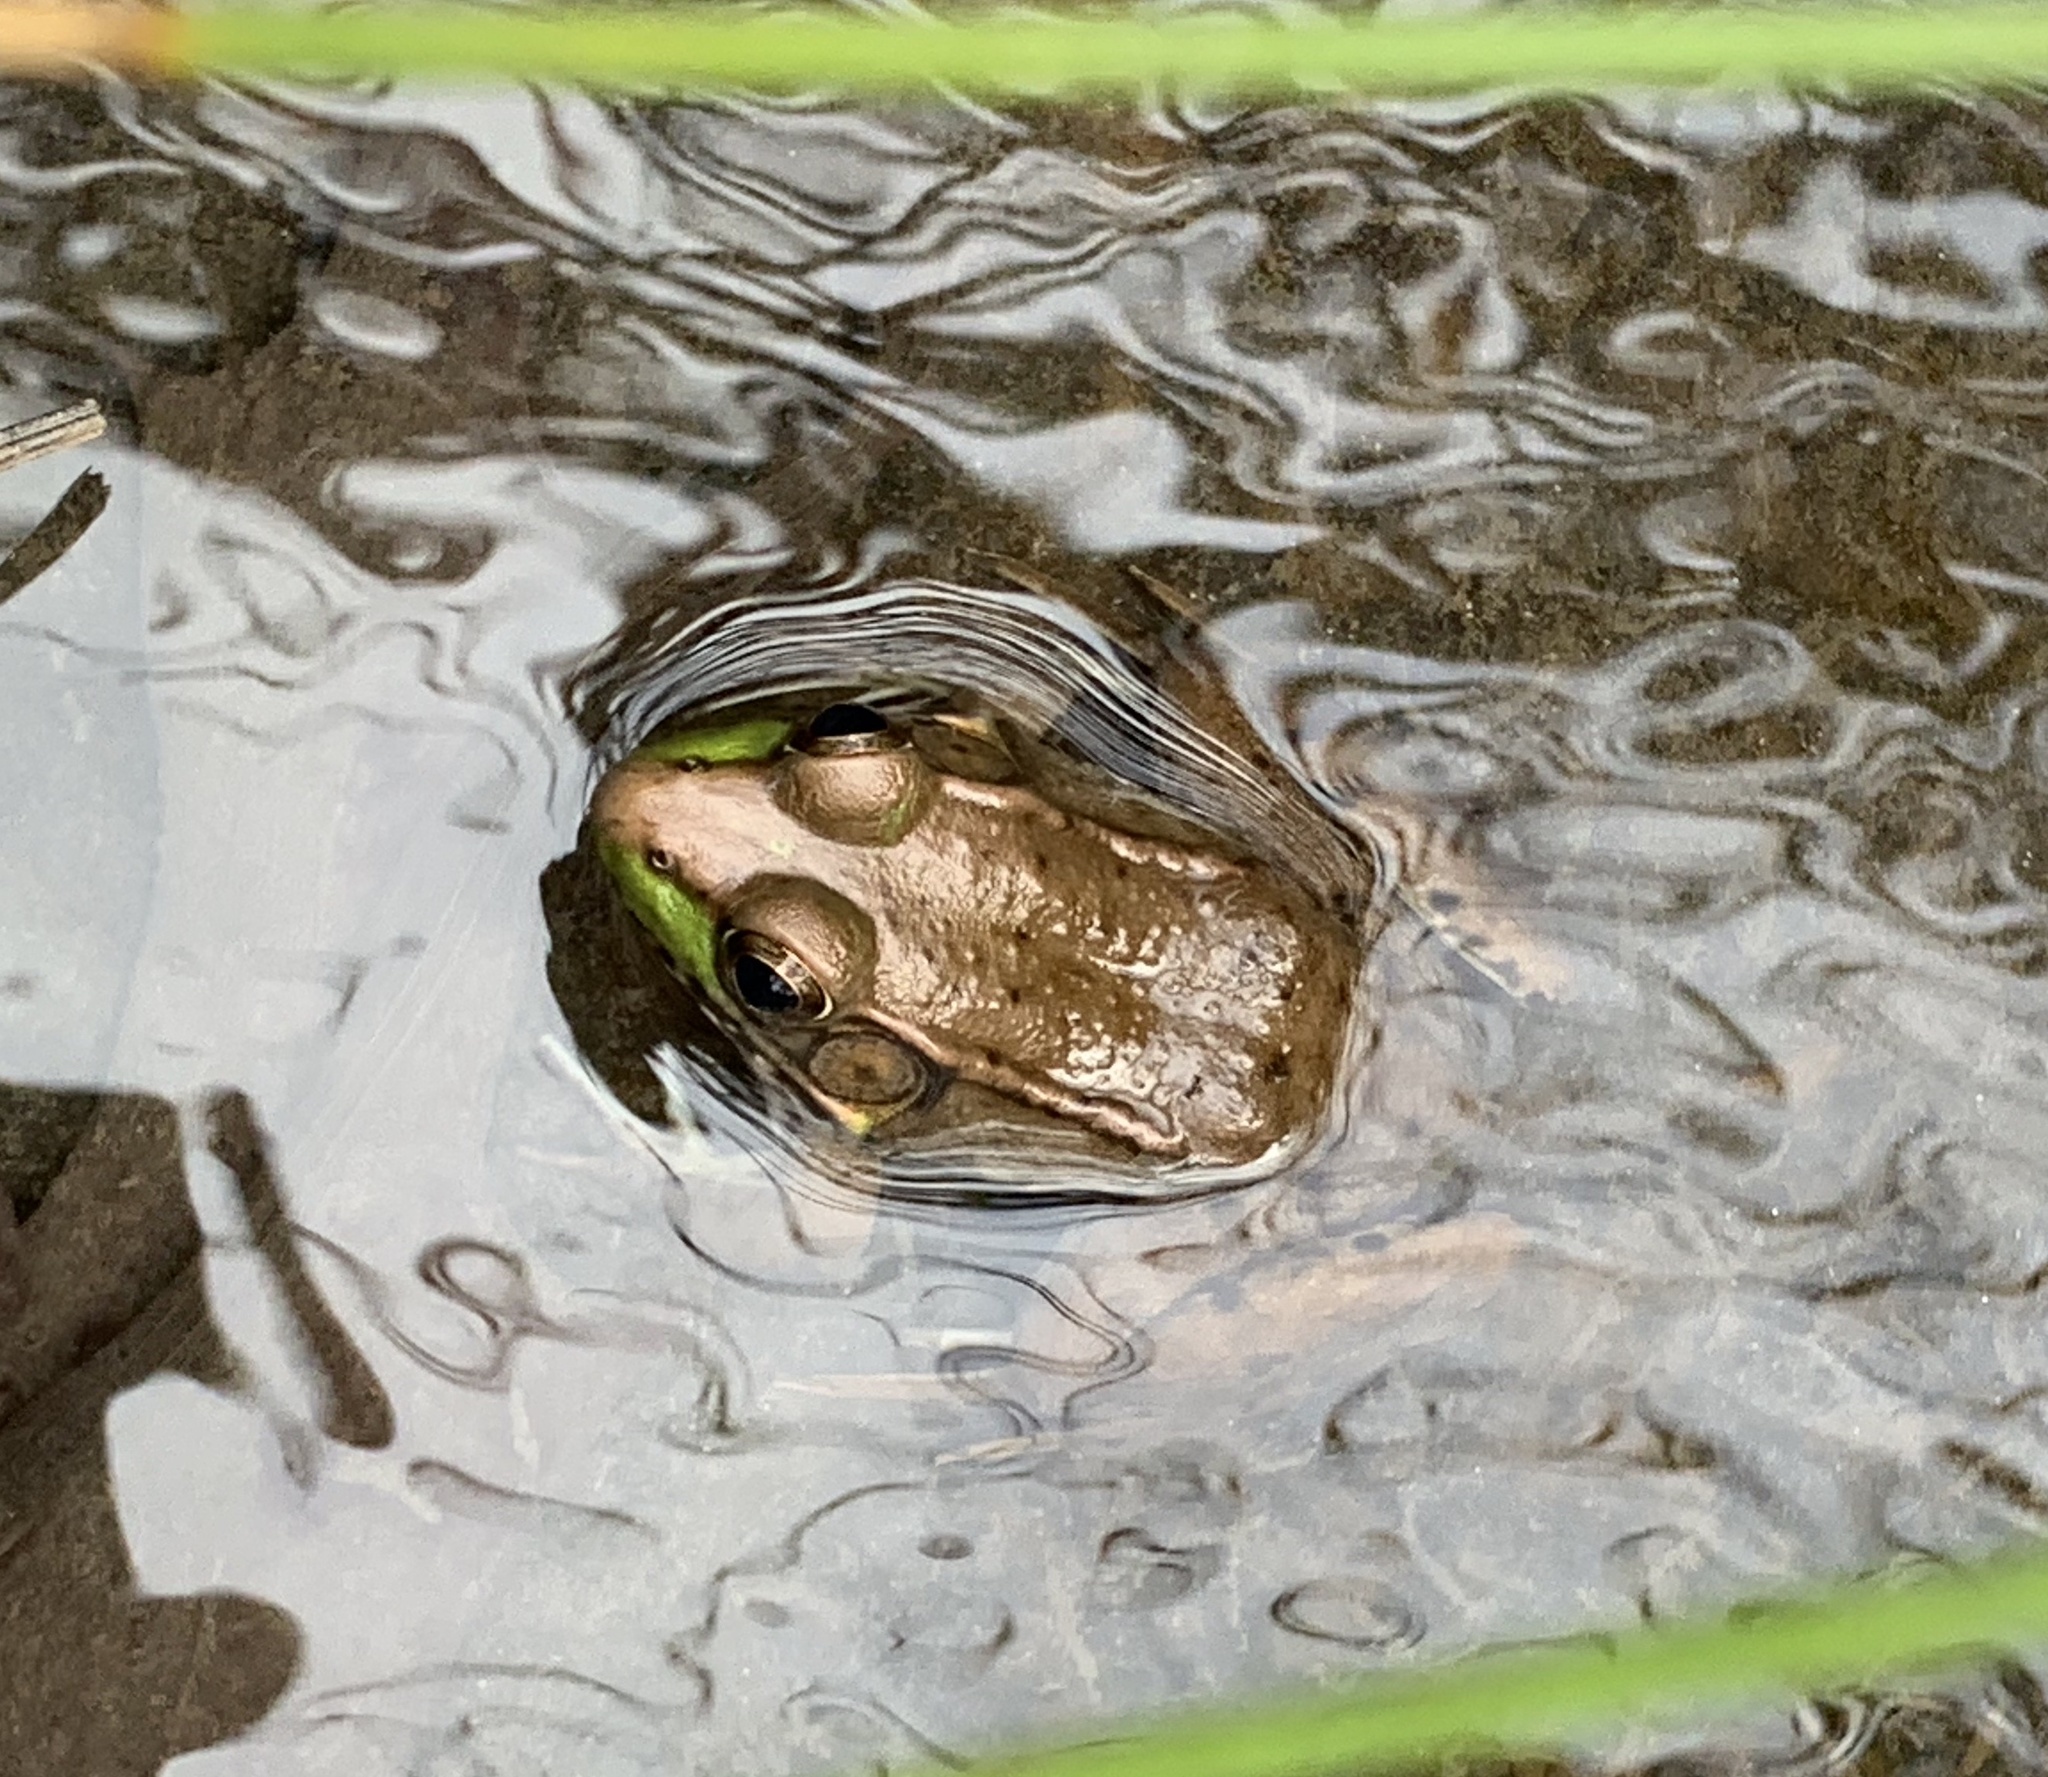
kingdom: Animalia
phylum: Chordata
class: Amphibia
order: Anura
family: Ranidae
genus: Lithobates
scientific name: Lithobates clamitans
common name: Green frog
